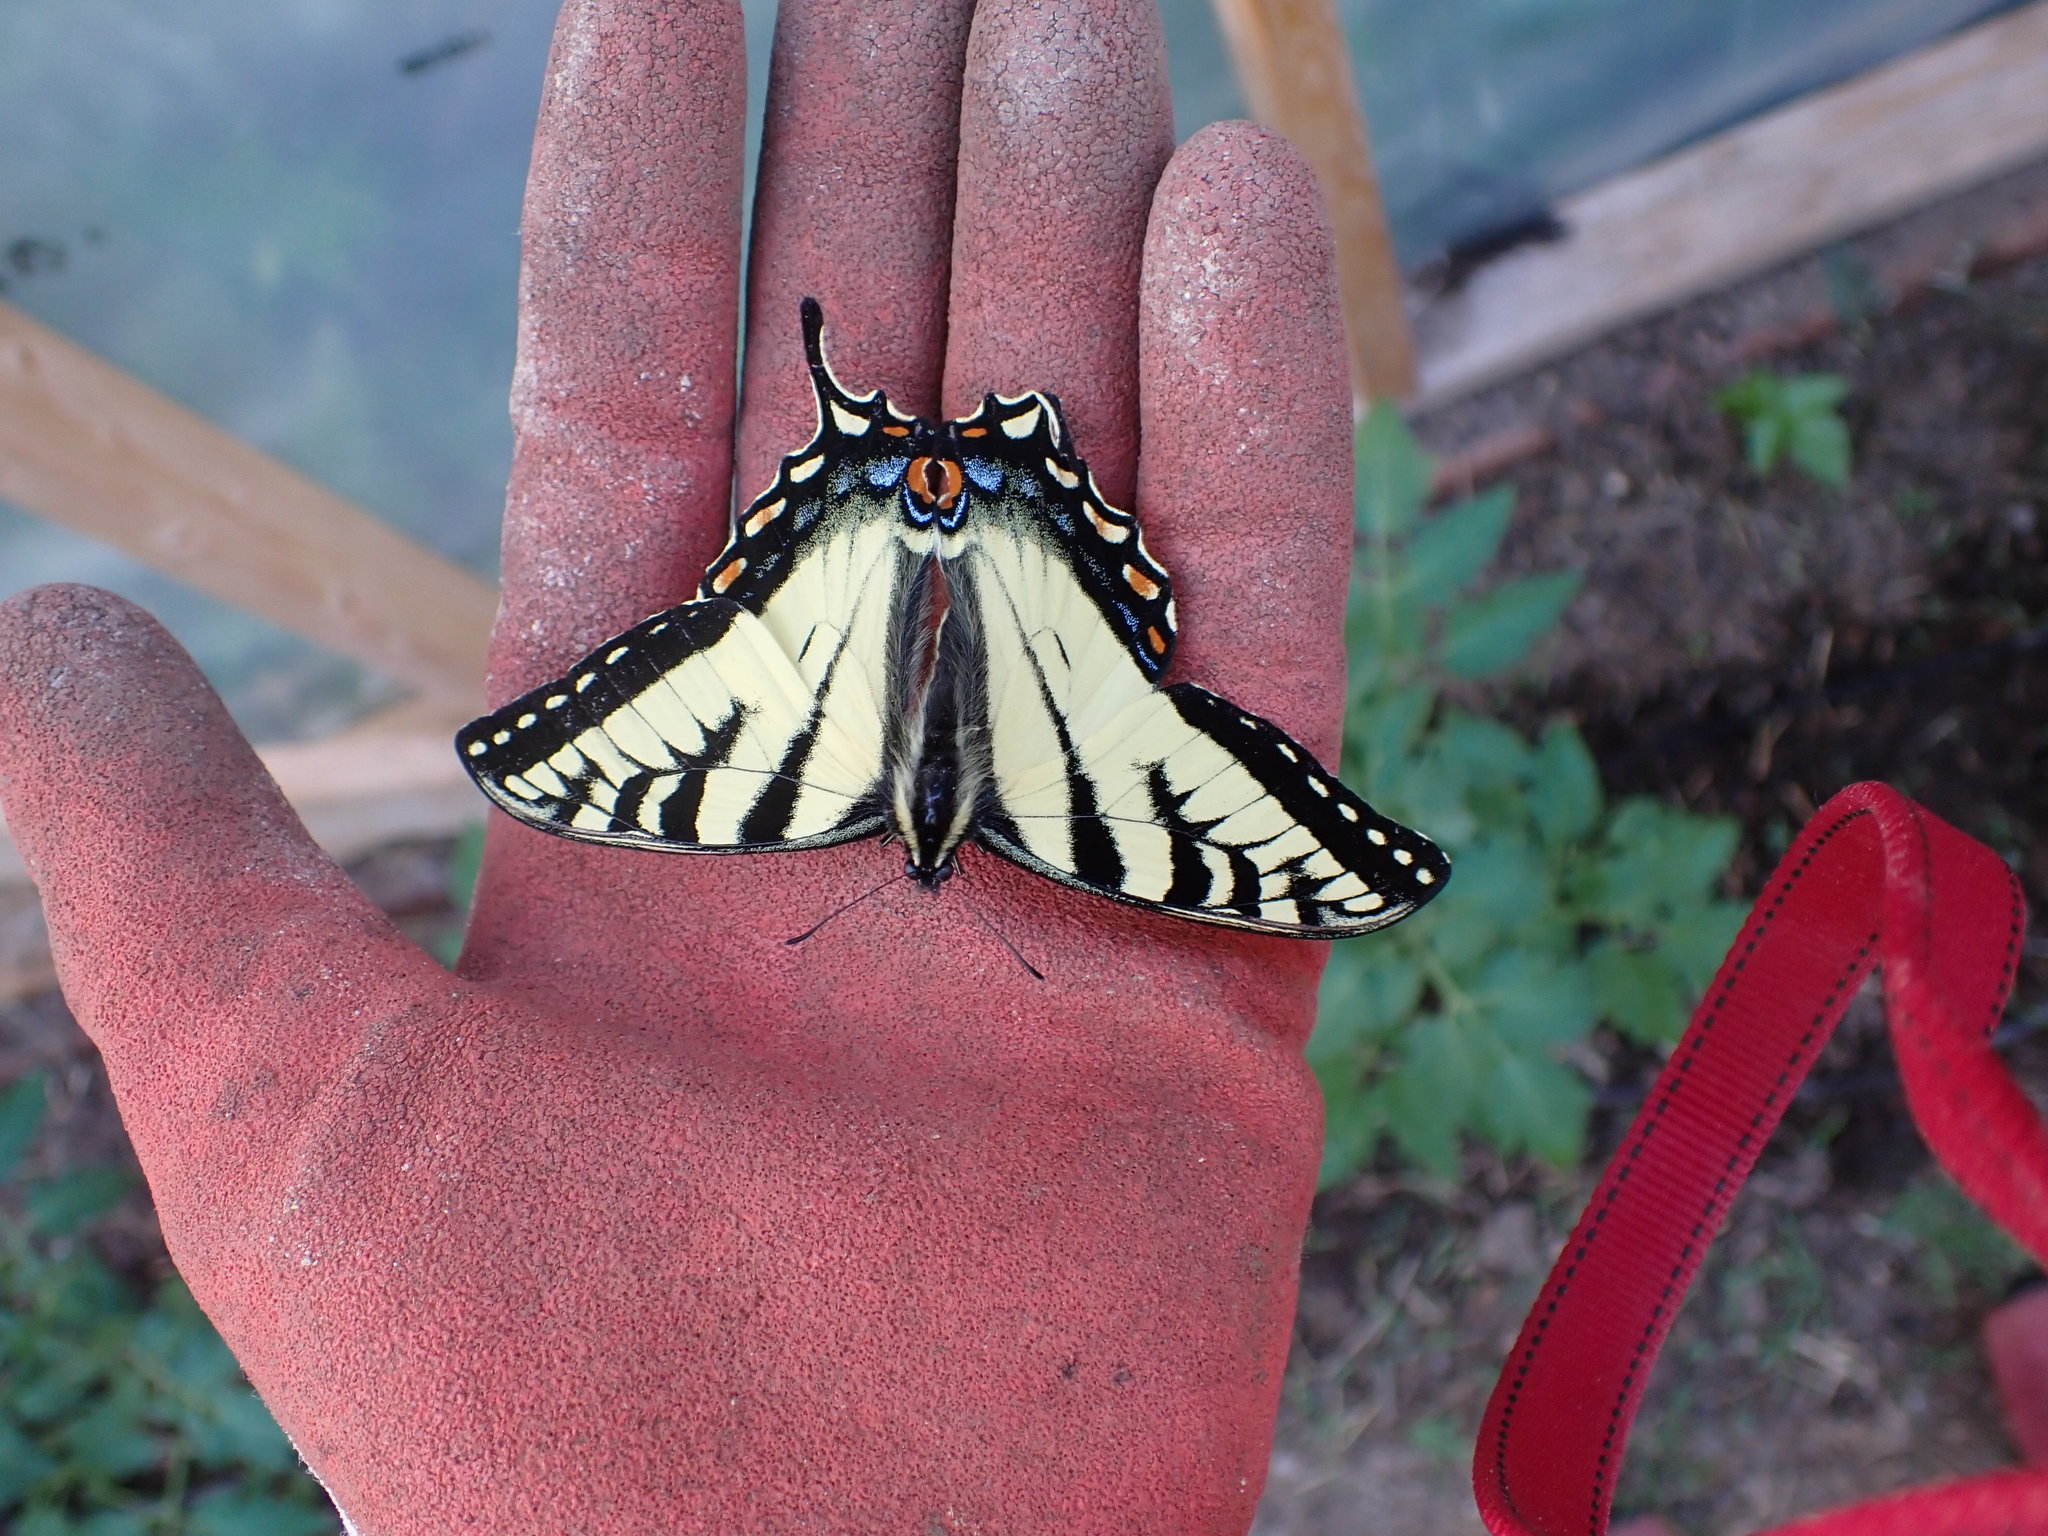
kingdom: Animalia
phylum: Arthropoda
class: Insecta
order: Lepidoptera
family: Papilionidae
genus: Papilio
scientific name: Papilio canadensis
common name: Canadian tiger swallowtail
